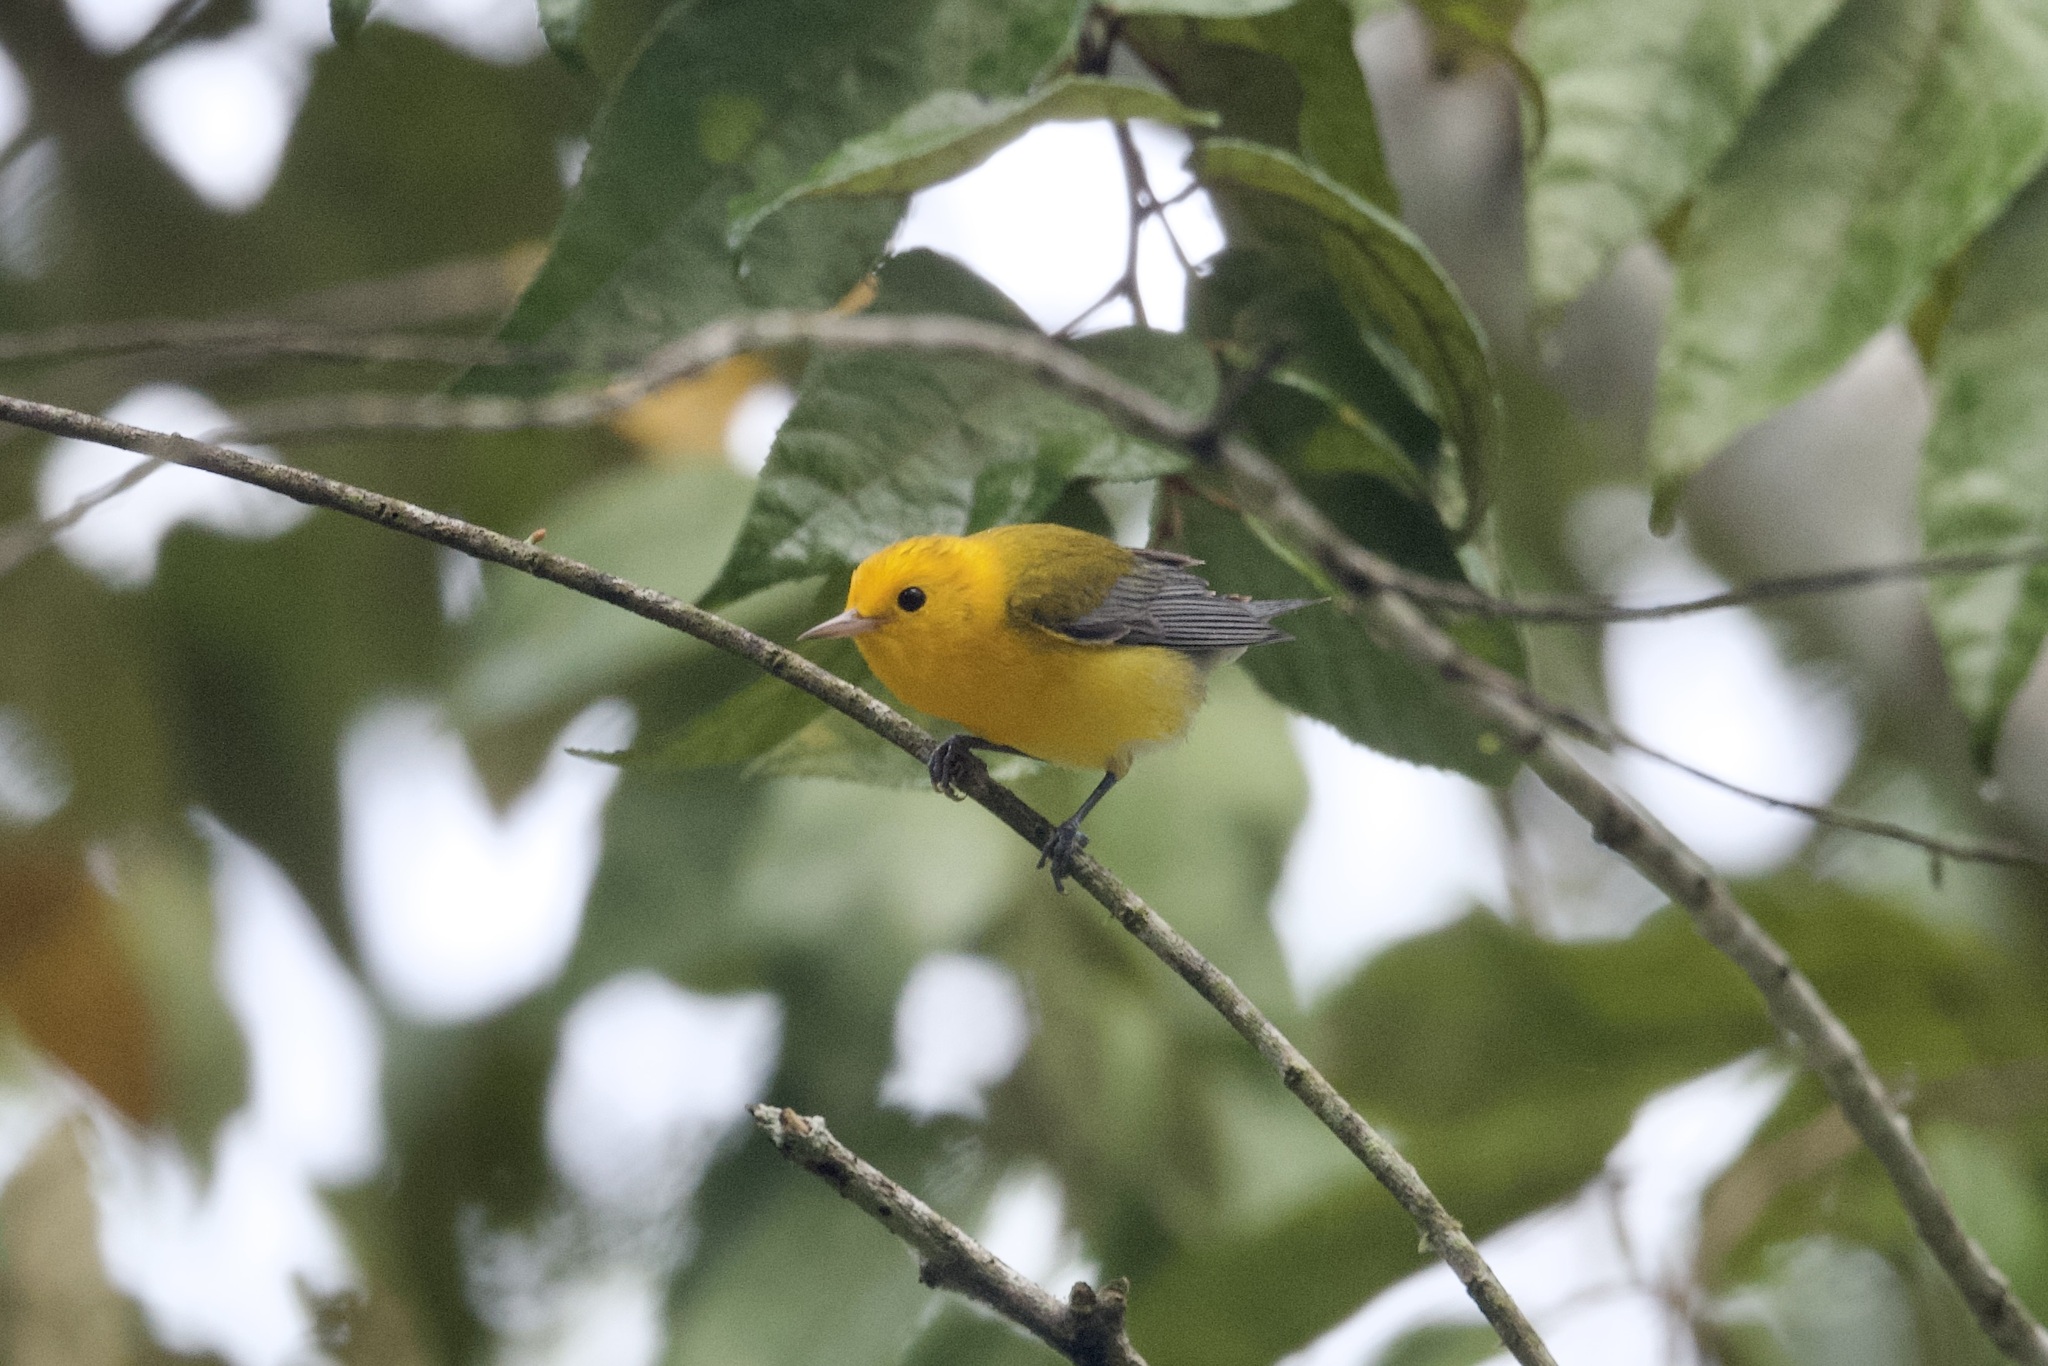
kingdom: Animalia
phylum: Chordata
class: Aves
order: Passeriformes
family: Parulidae
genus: Protonotaria
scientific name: Protonotaria citrea
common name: Prothonotary warbler
